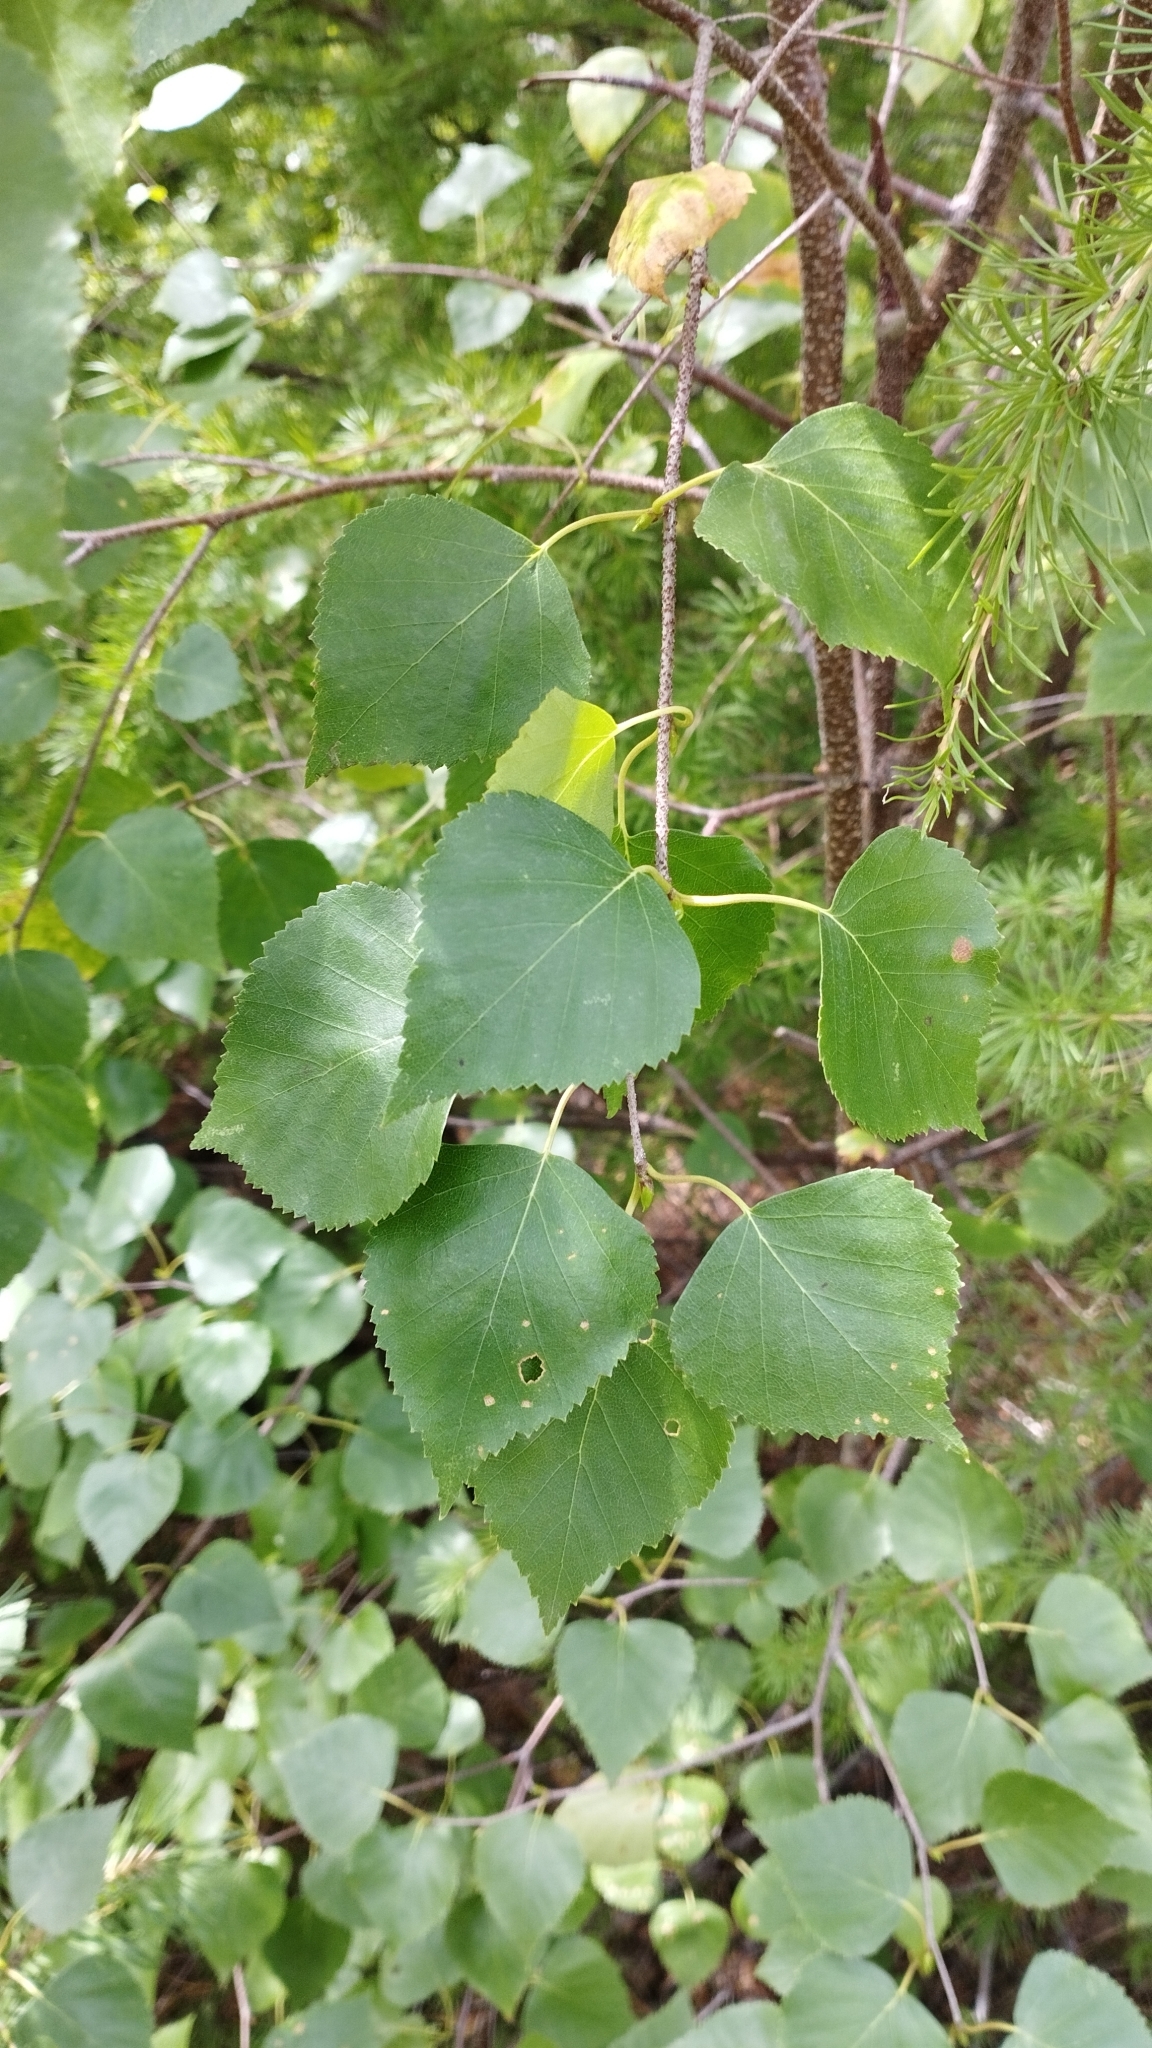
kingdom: Plantae
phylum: Tracheophyta
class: Magnoliopsida
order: Fagales
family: Betulaceae
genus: Betula
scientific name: Betula pendula
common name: Silver birch
